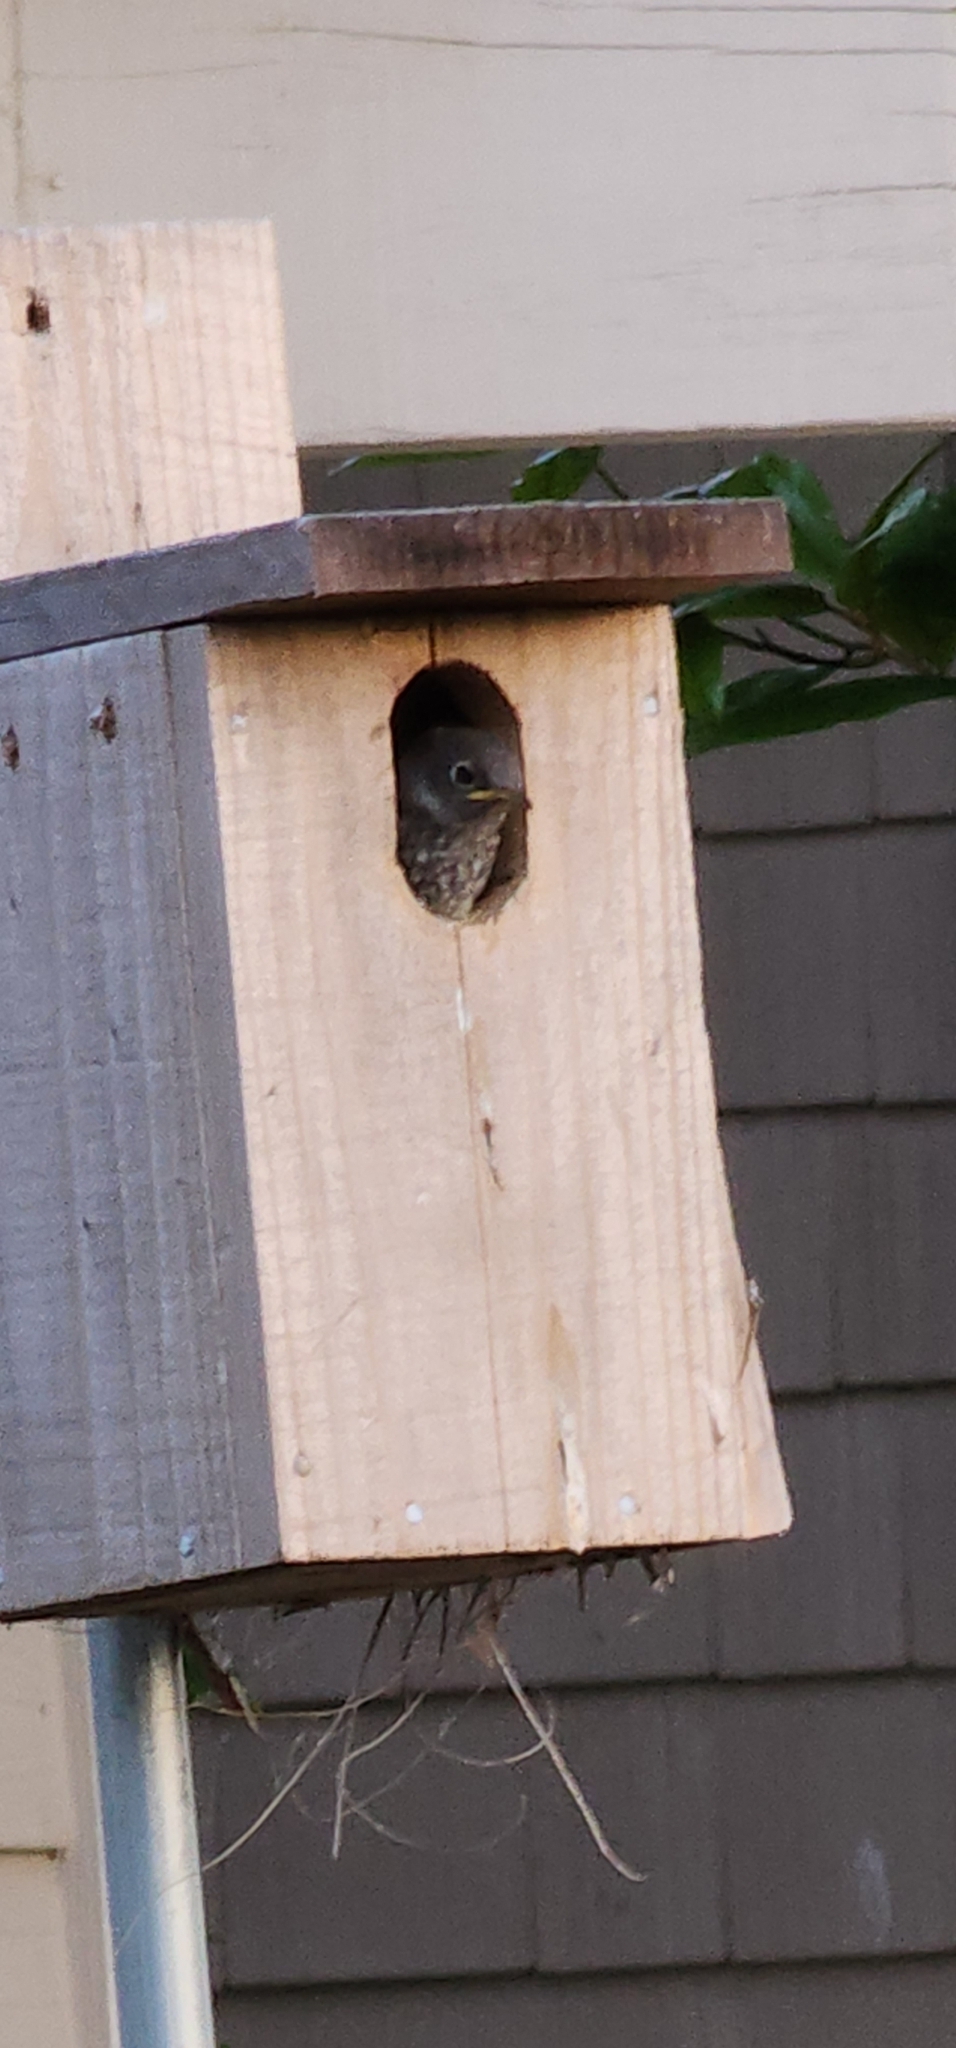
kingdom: Animalia
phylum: Chordata
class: Aves
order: Passeriformes
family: Turdidae
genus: Sialia
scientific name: Sialia mexicana
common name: Western bluebird
